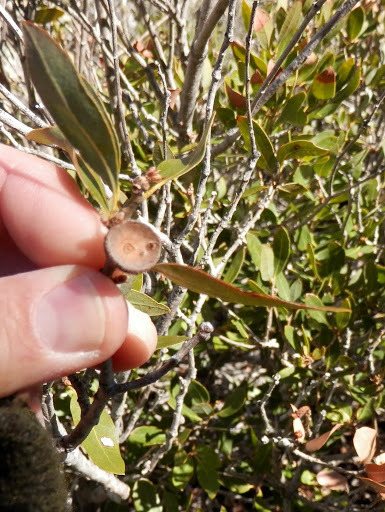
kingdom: Plantae
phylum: Tracheophyta
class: Magnoliopsida
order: Fagales
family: Fagaceae
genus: Quercus
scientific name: Quercus vacciniifolia
